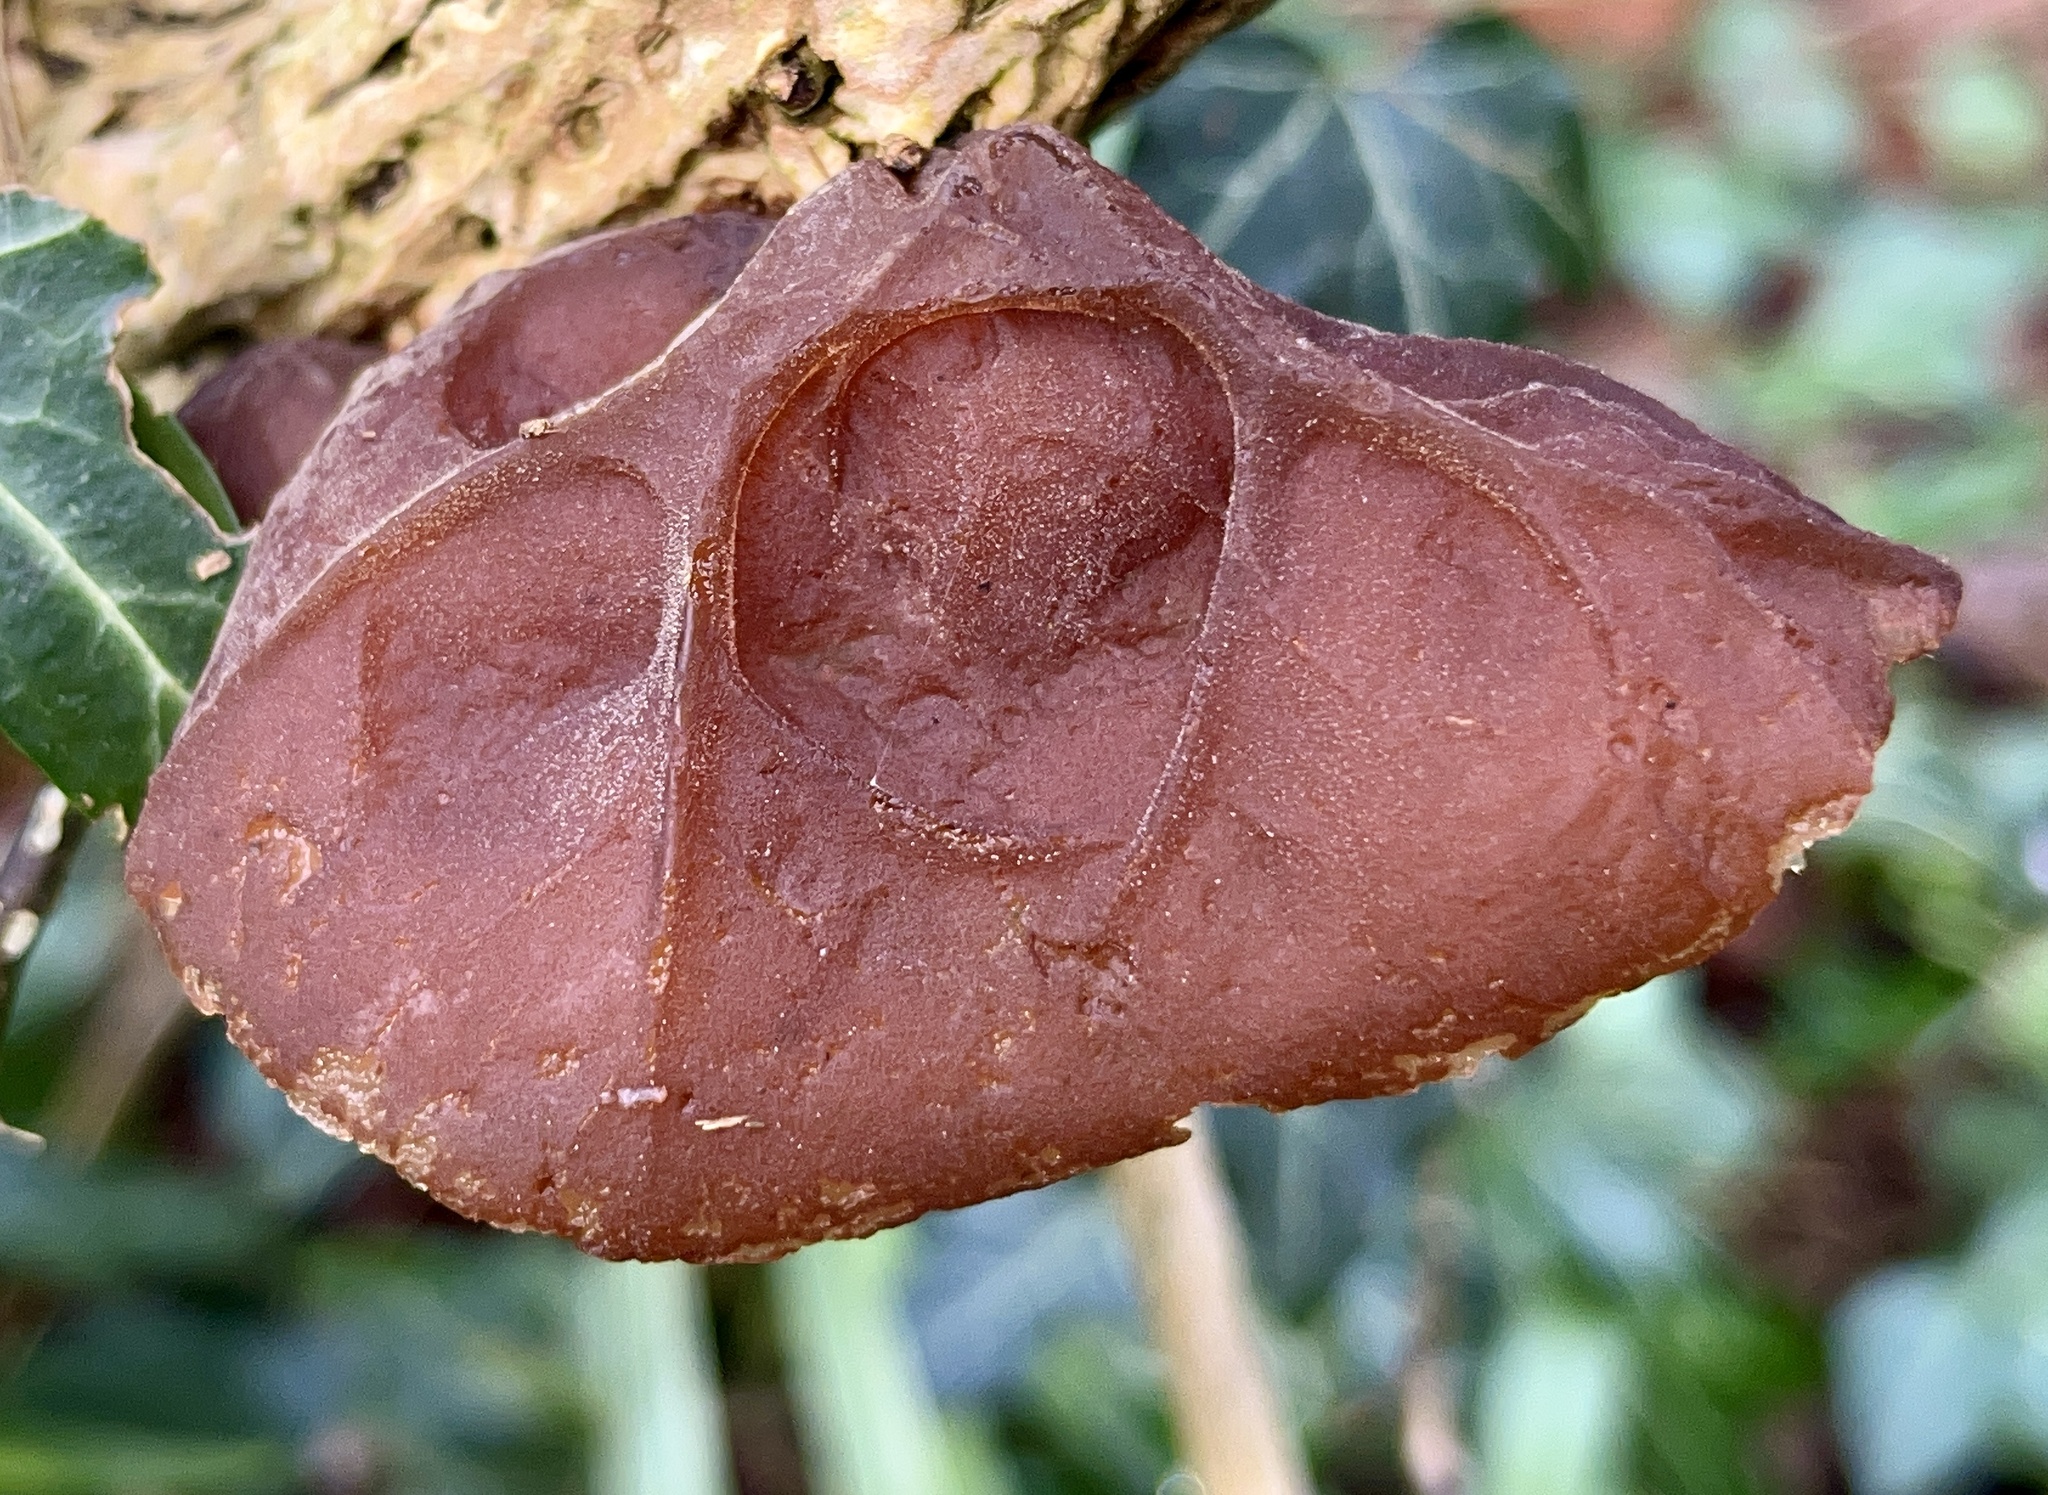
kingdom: Fungi
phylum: Basidiomycota
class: Agaricomycetes
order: Auriculariales
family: Auriculariaceae
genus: Auricularia
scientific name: Auricularia auricula-judae
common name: Jelly ear
